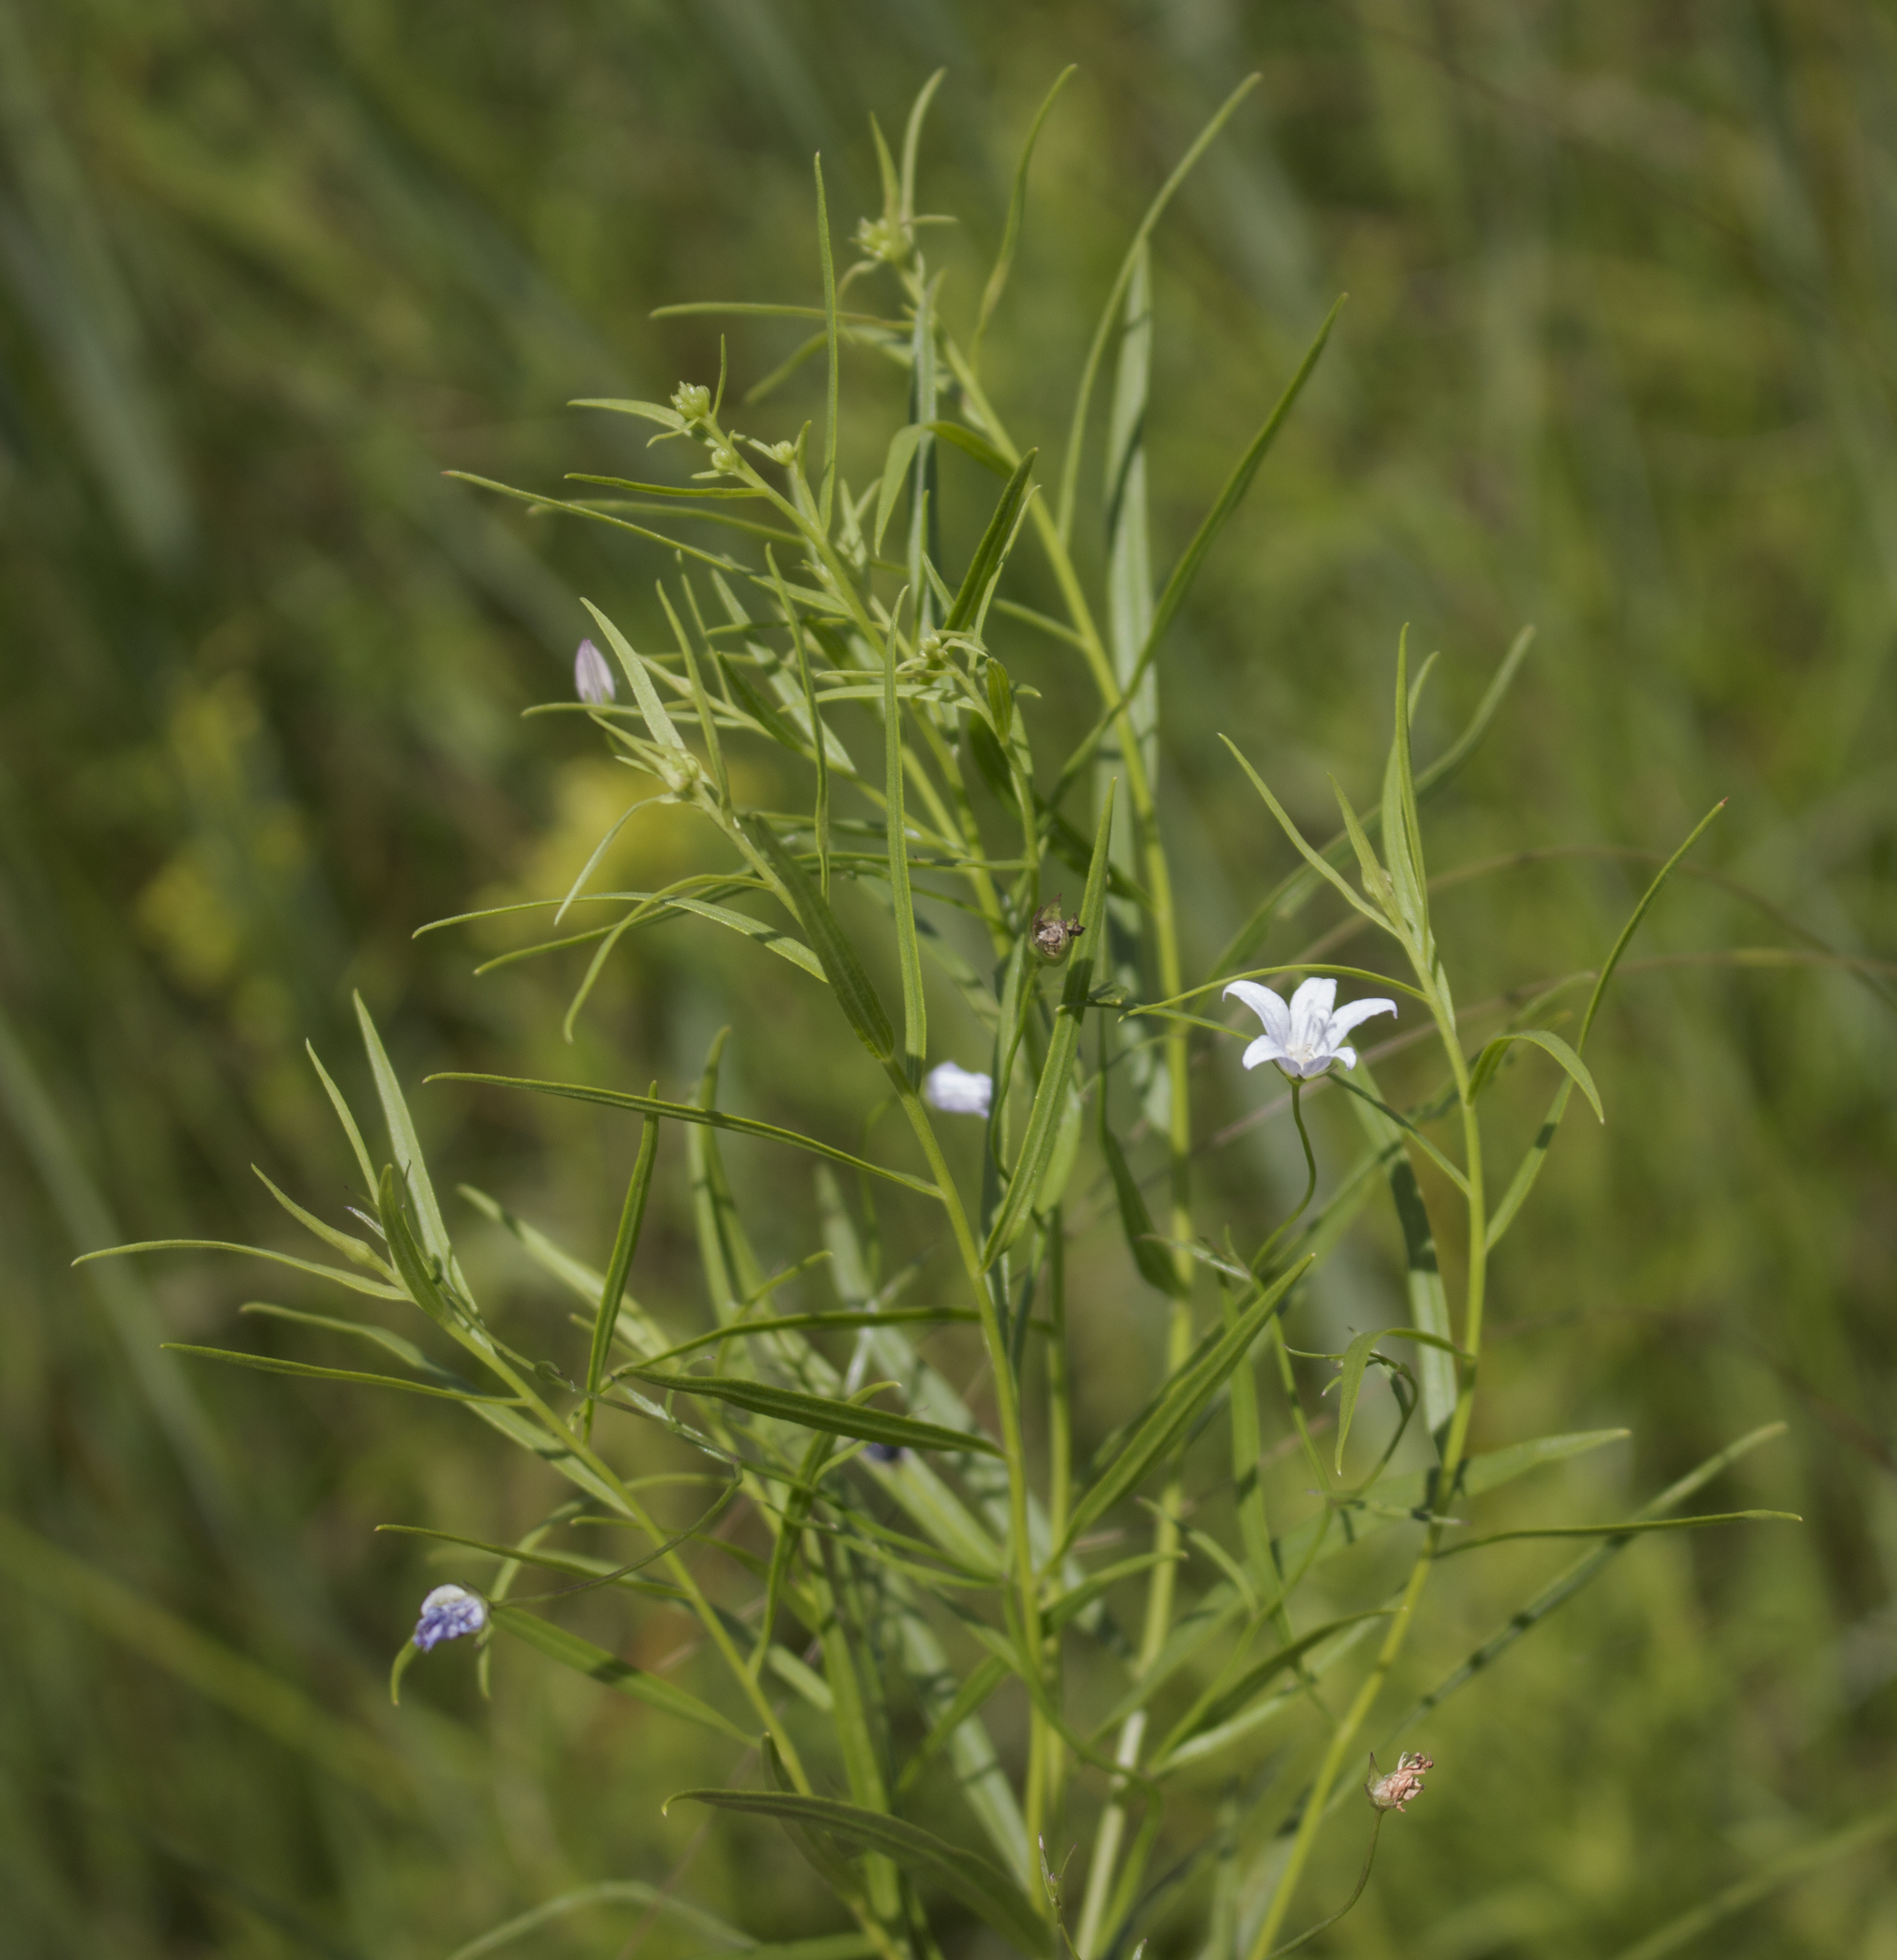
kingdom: Plantae
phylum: Tracheophyta
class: Magnoliopsida
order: Asterales
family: Campanulaceae
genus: Palustricodon
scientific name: Palustricodon aparinoides
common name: Bedstraw bellflower
